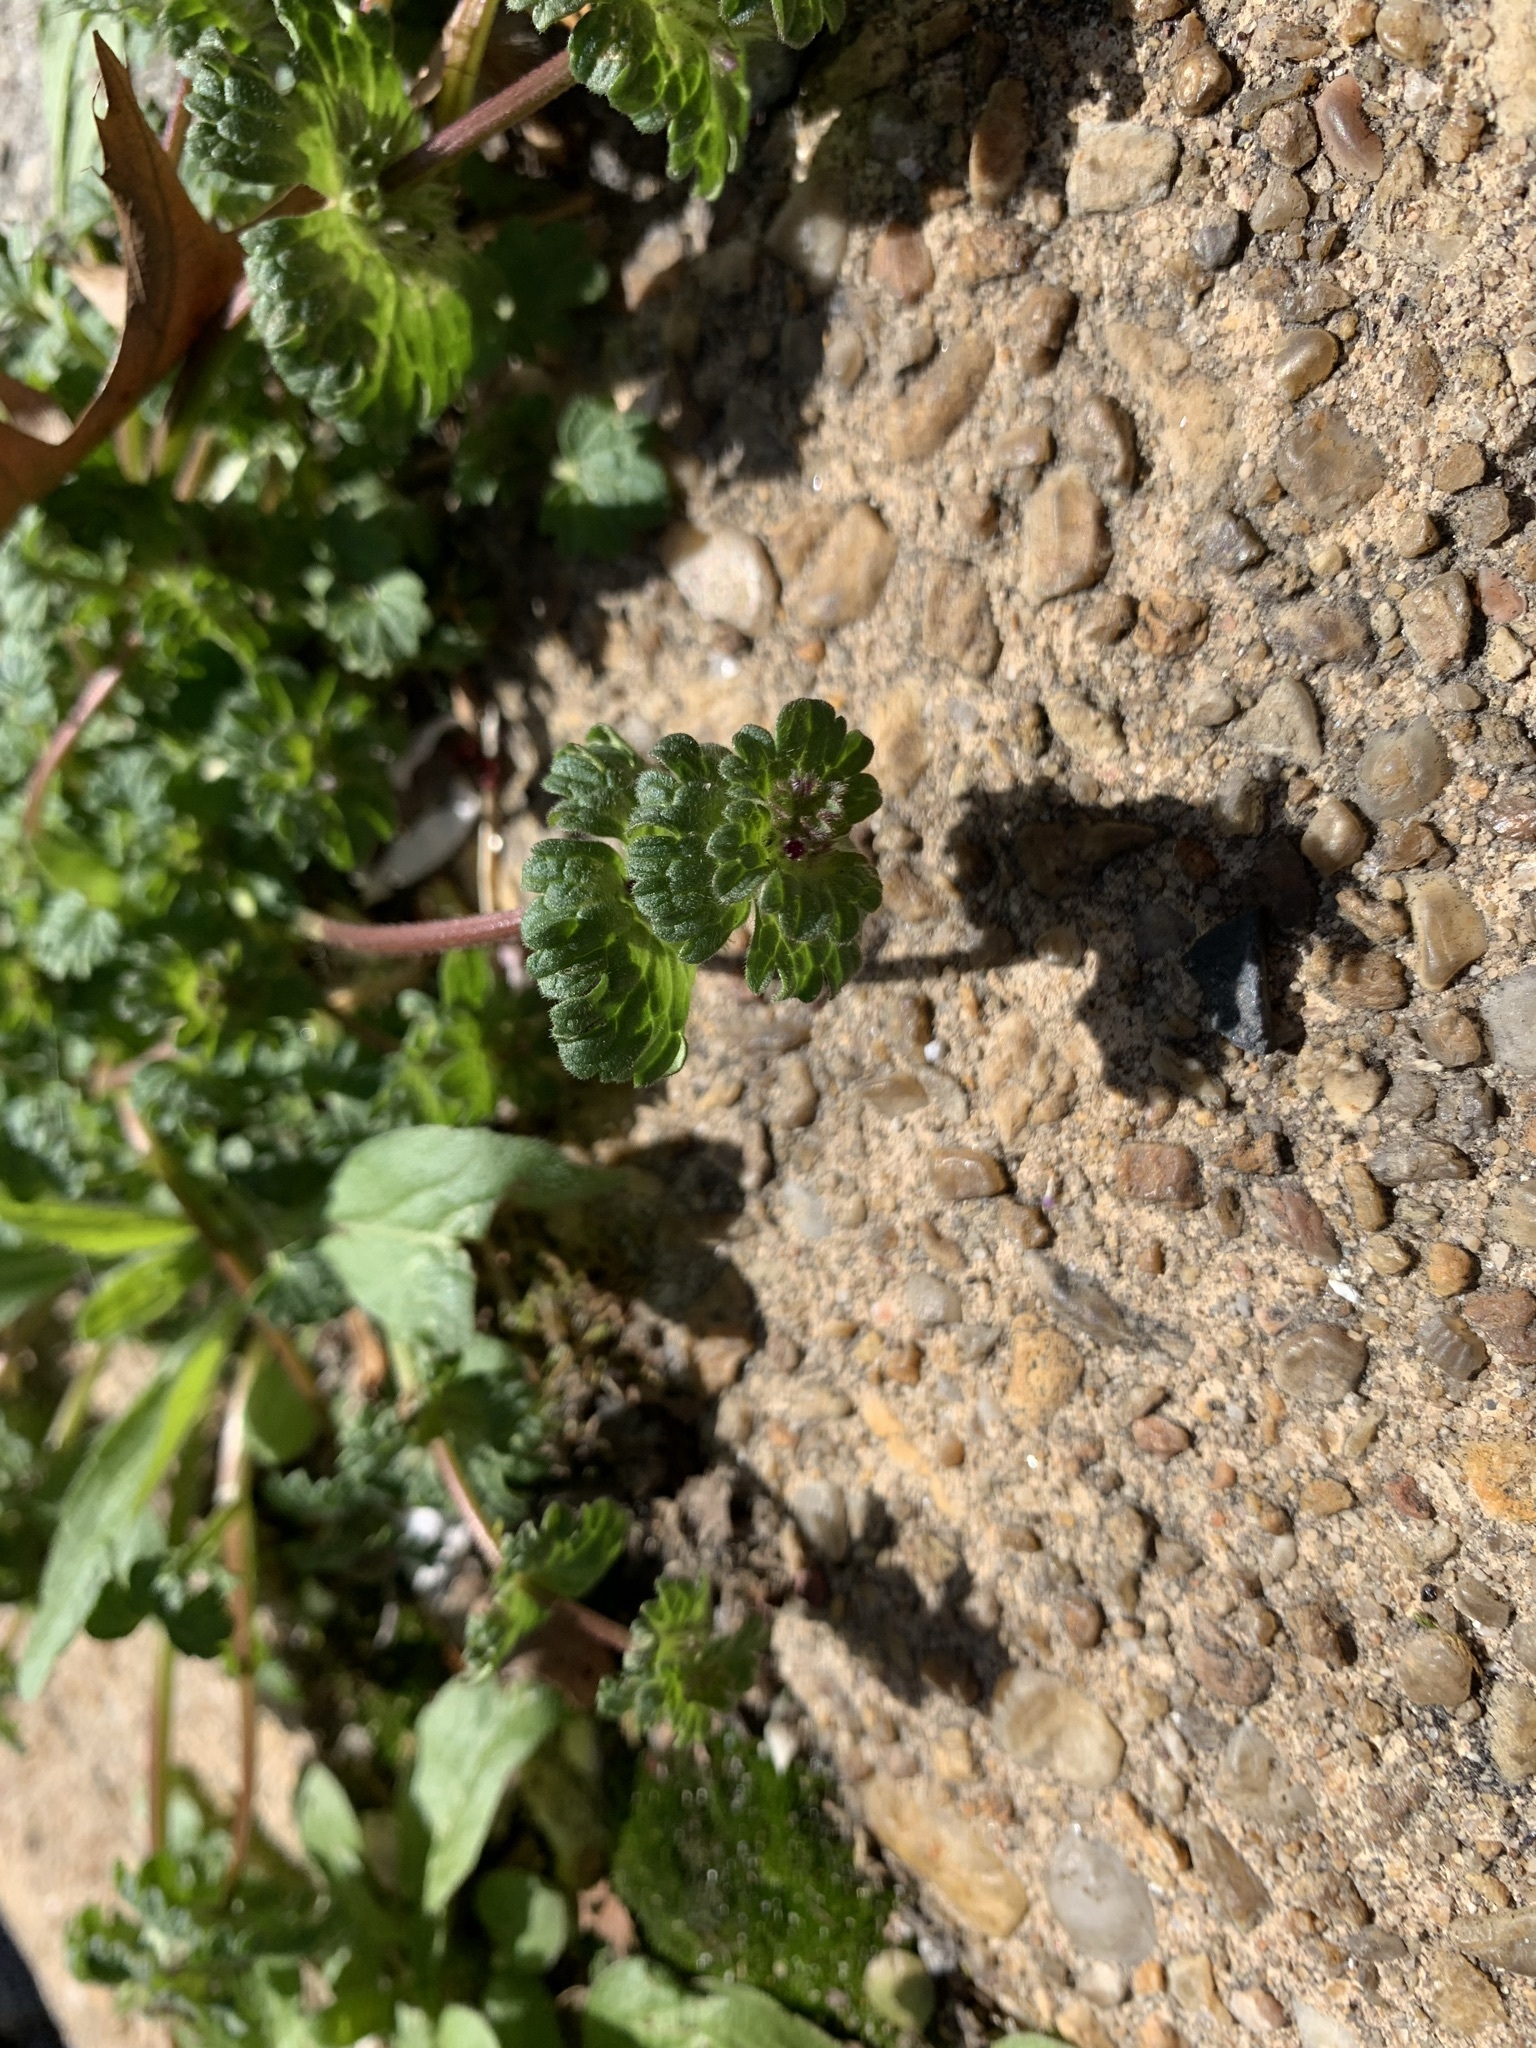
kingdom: Plantae
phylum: Tracheophyta
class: Magnoliopsida
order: Lamiales
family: Lamiaceae
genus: Lamium
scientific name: Lamium amplexicaule
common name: Henbit dead-nettle
